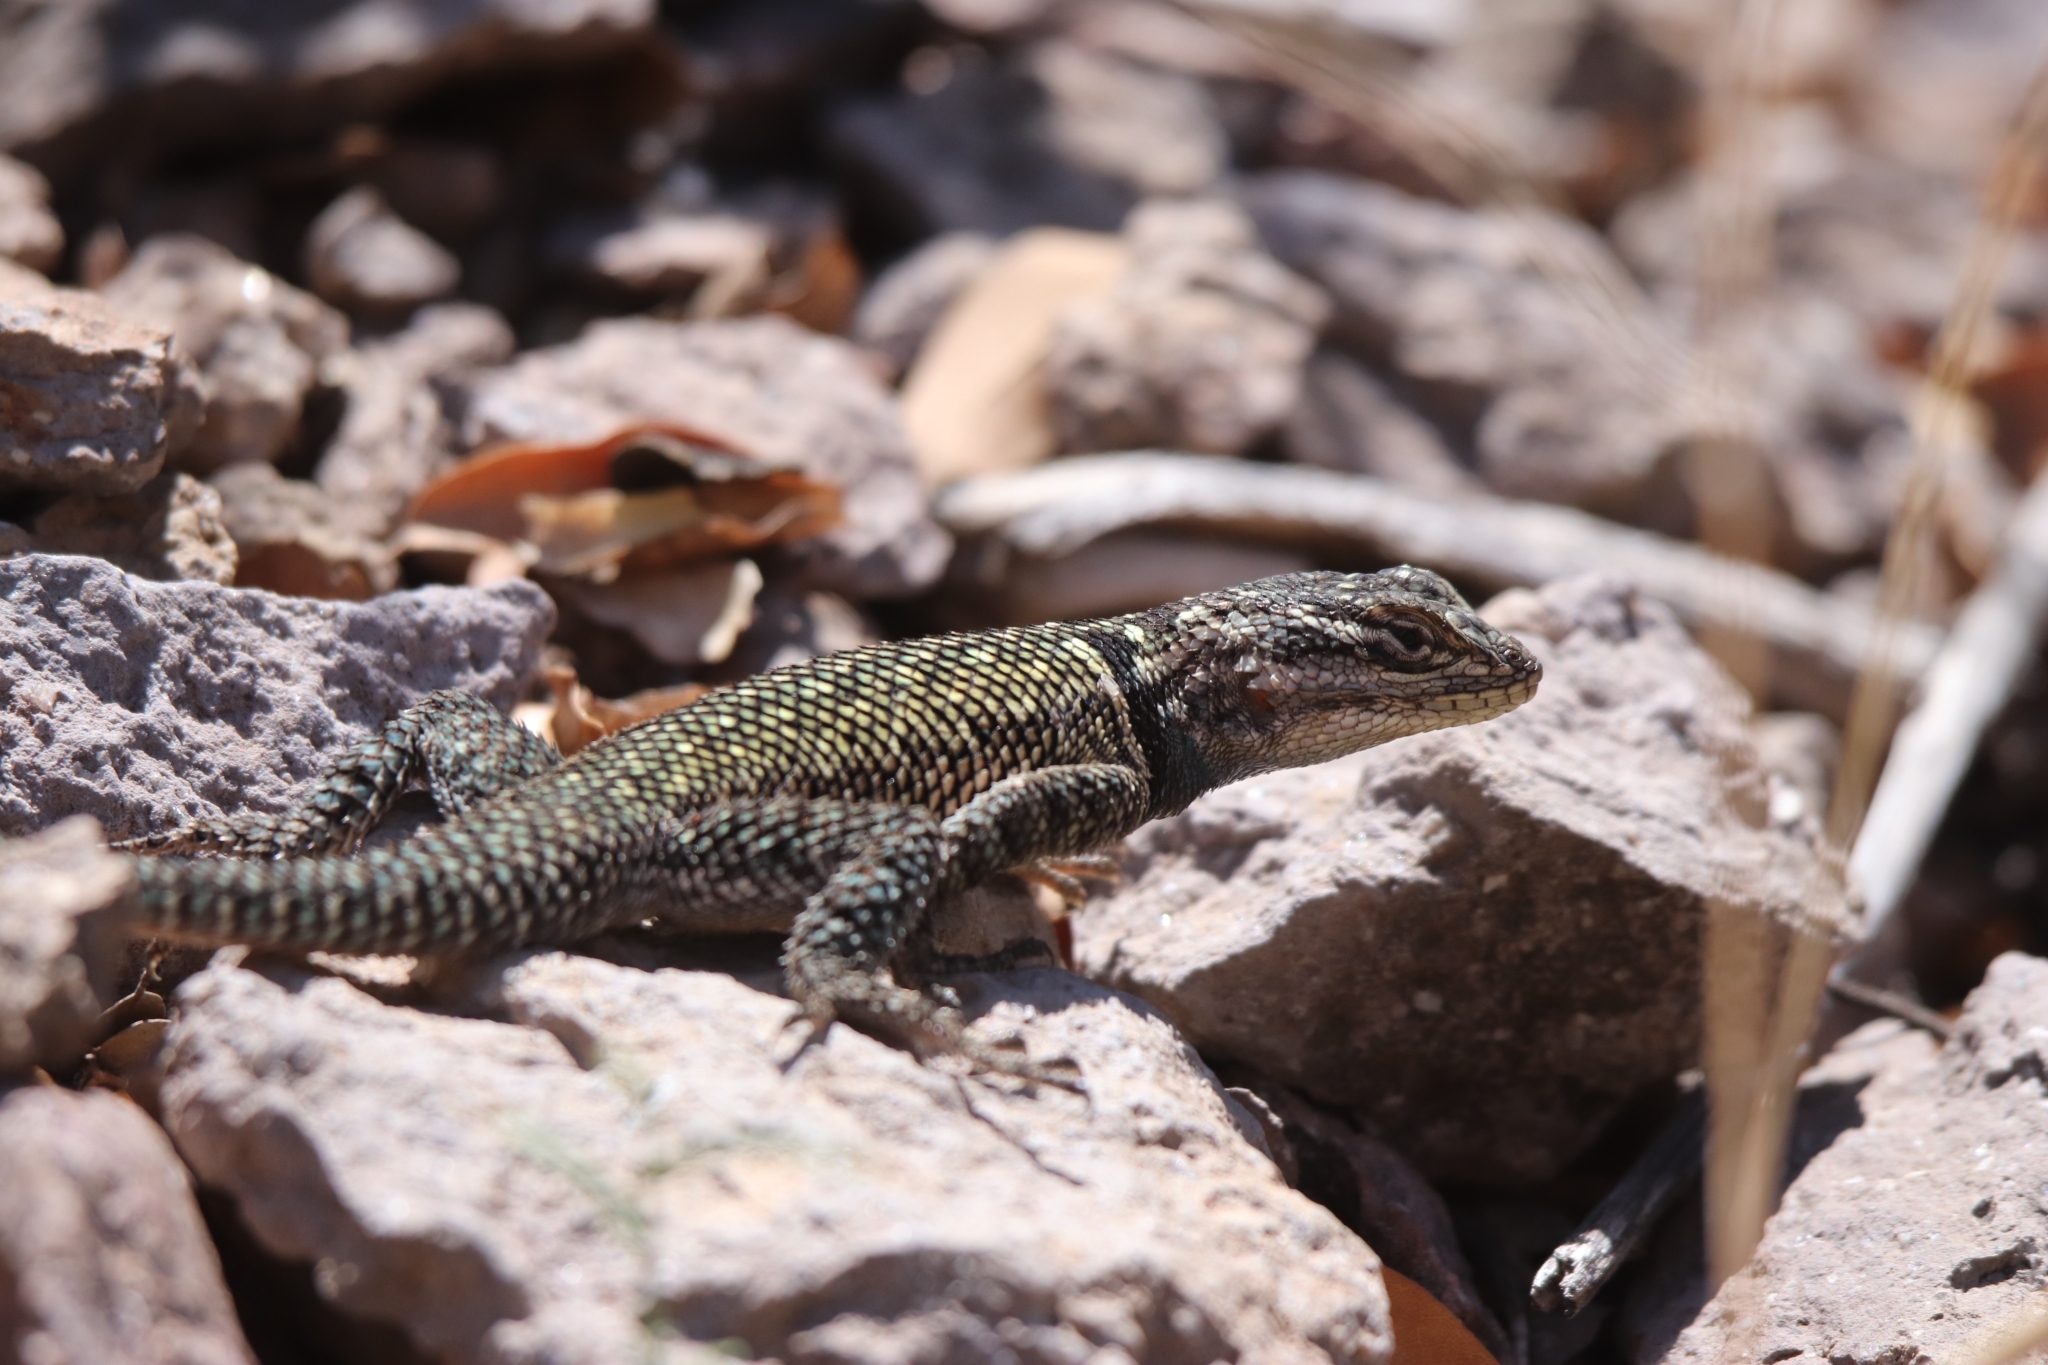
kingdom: Animalia
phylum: Chordata
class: Squamata
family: Phrynosomatidae
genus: Sceloporus
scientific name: Sceloporus jarrovii
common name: Yarrow's spiny lizard
